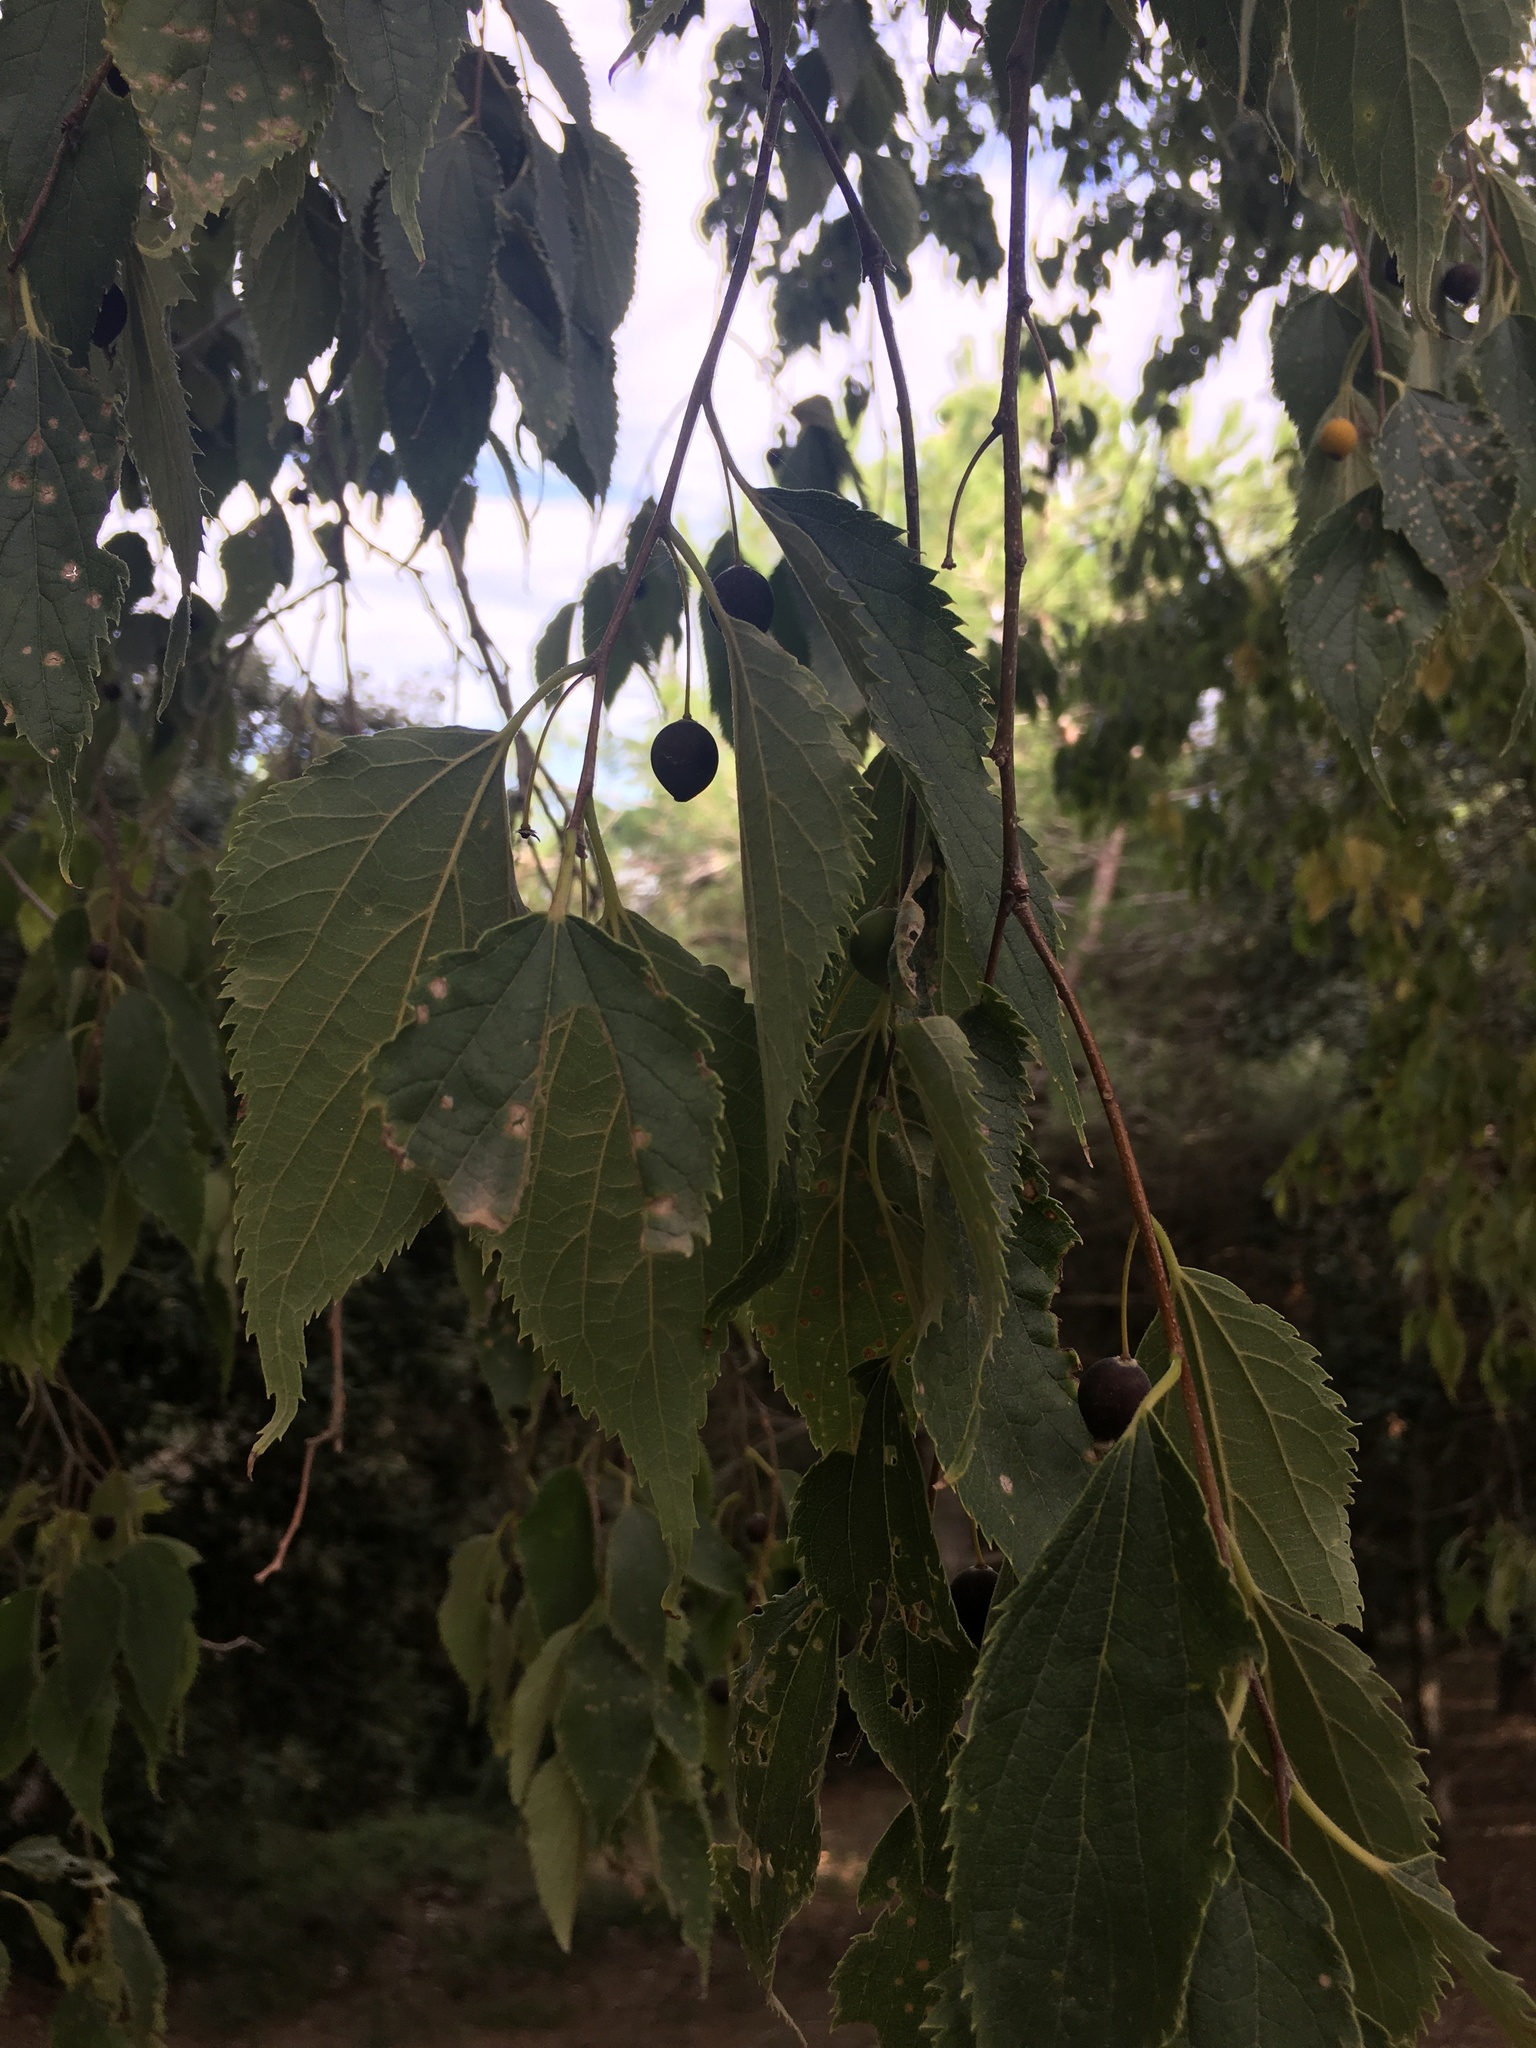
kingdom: Plantae
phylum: Tracheophyta
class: Magnoliopsida
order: Rosales
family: Cannabaceae
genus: Celtis
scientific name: Celtis australis
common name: European hackberry
